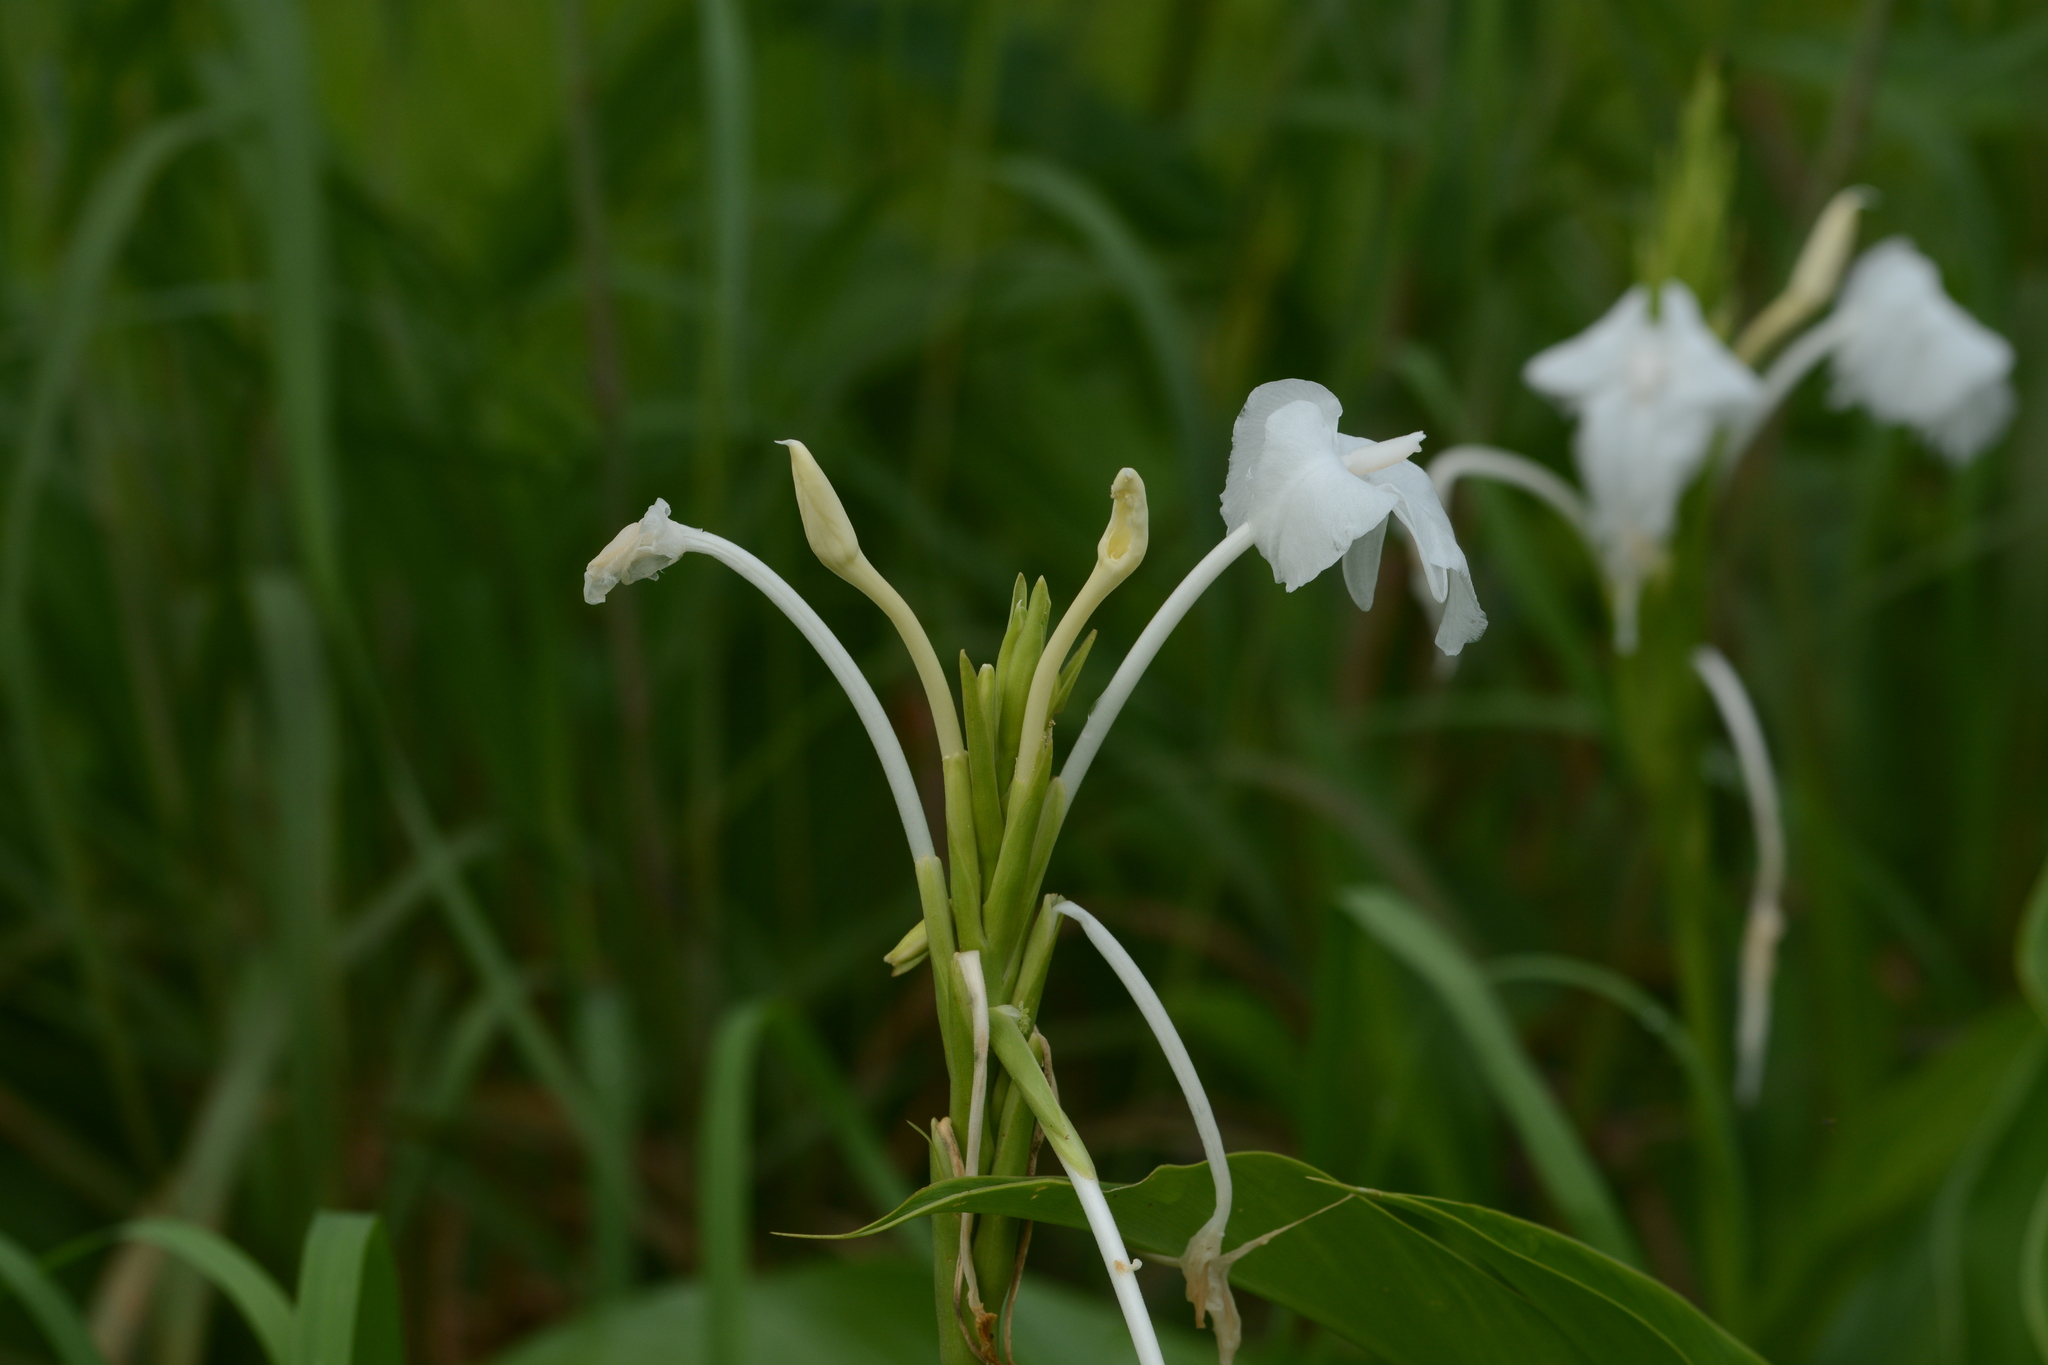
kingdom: Plantae
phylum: Tracheophyta
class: Liliopsida
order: Zingiberales
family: Zingiberaceae
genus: Curcuma
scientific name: Curcuma scaposa
